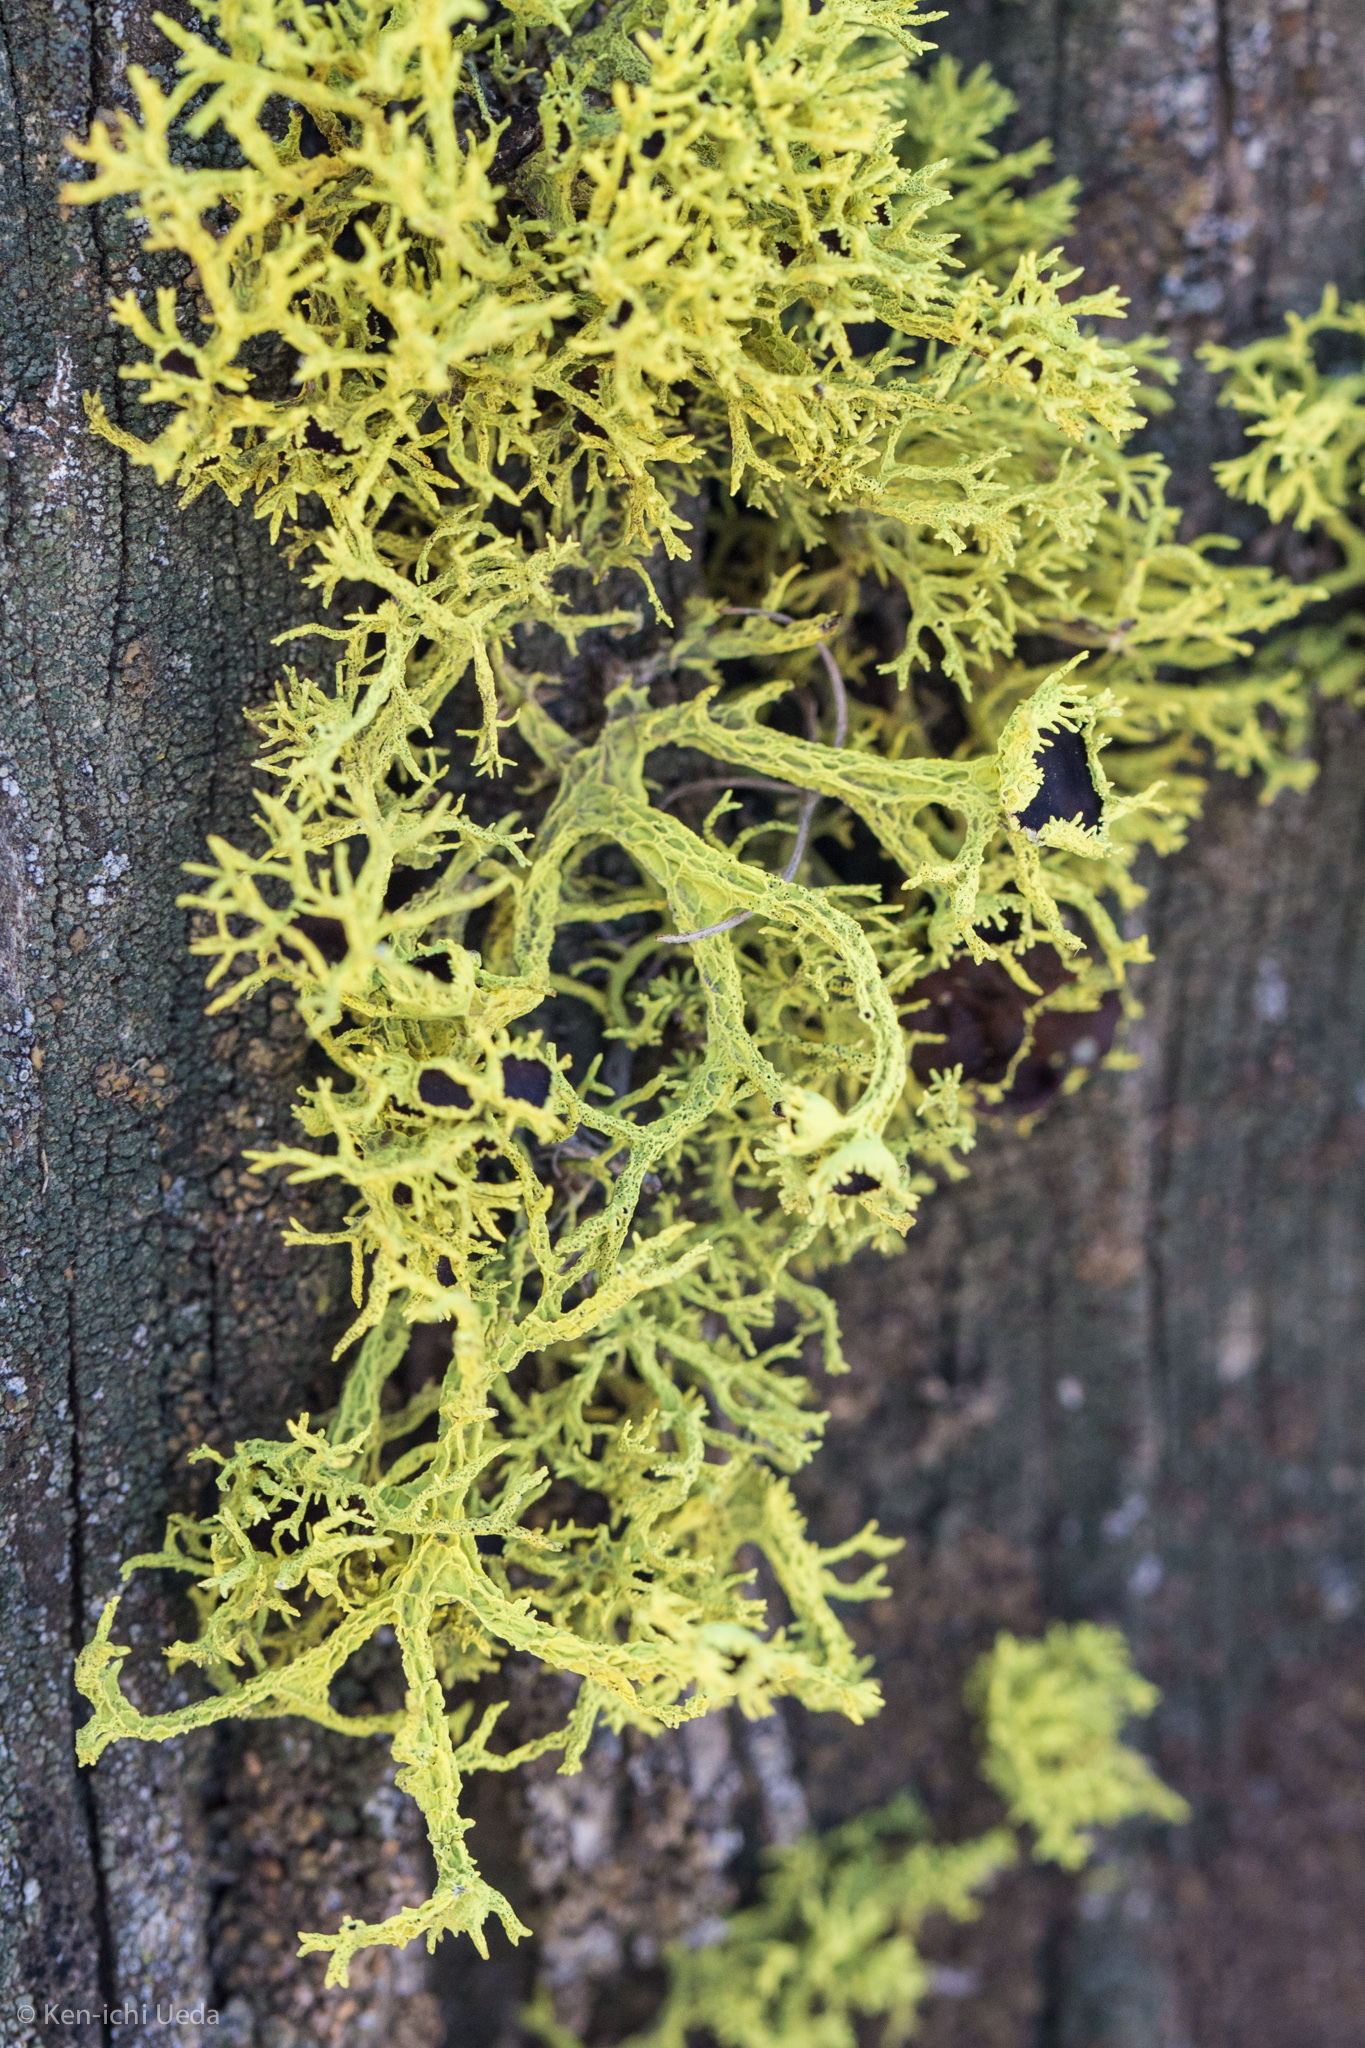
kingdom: Fungi
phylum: Ascomycota
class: Lecanoromycetes
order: Lecanorales
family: Parmeliaceae
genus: Letharia
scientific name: Letharia columbiana
